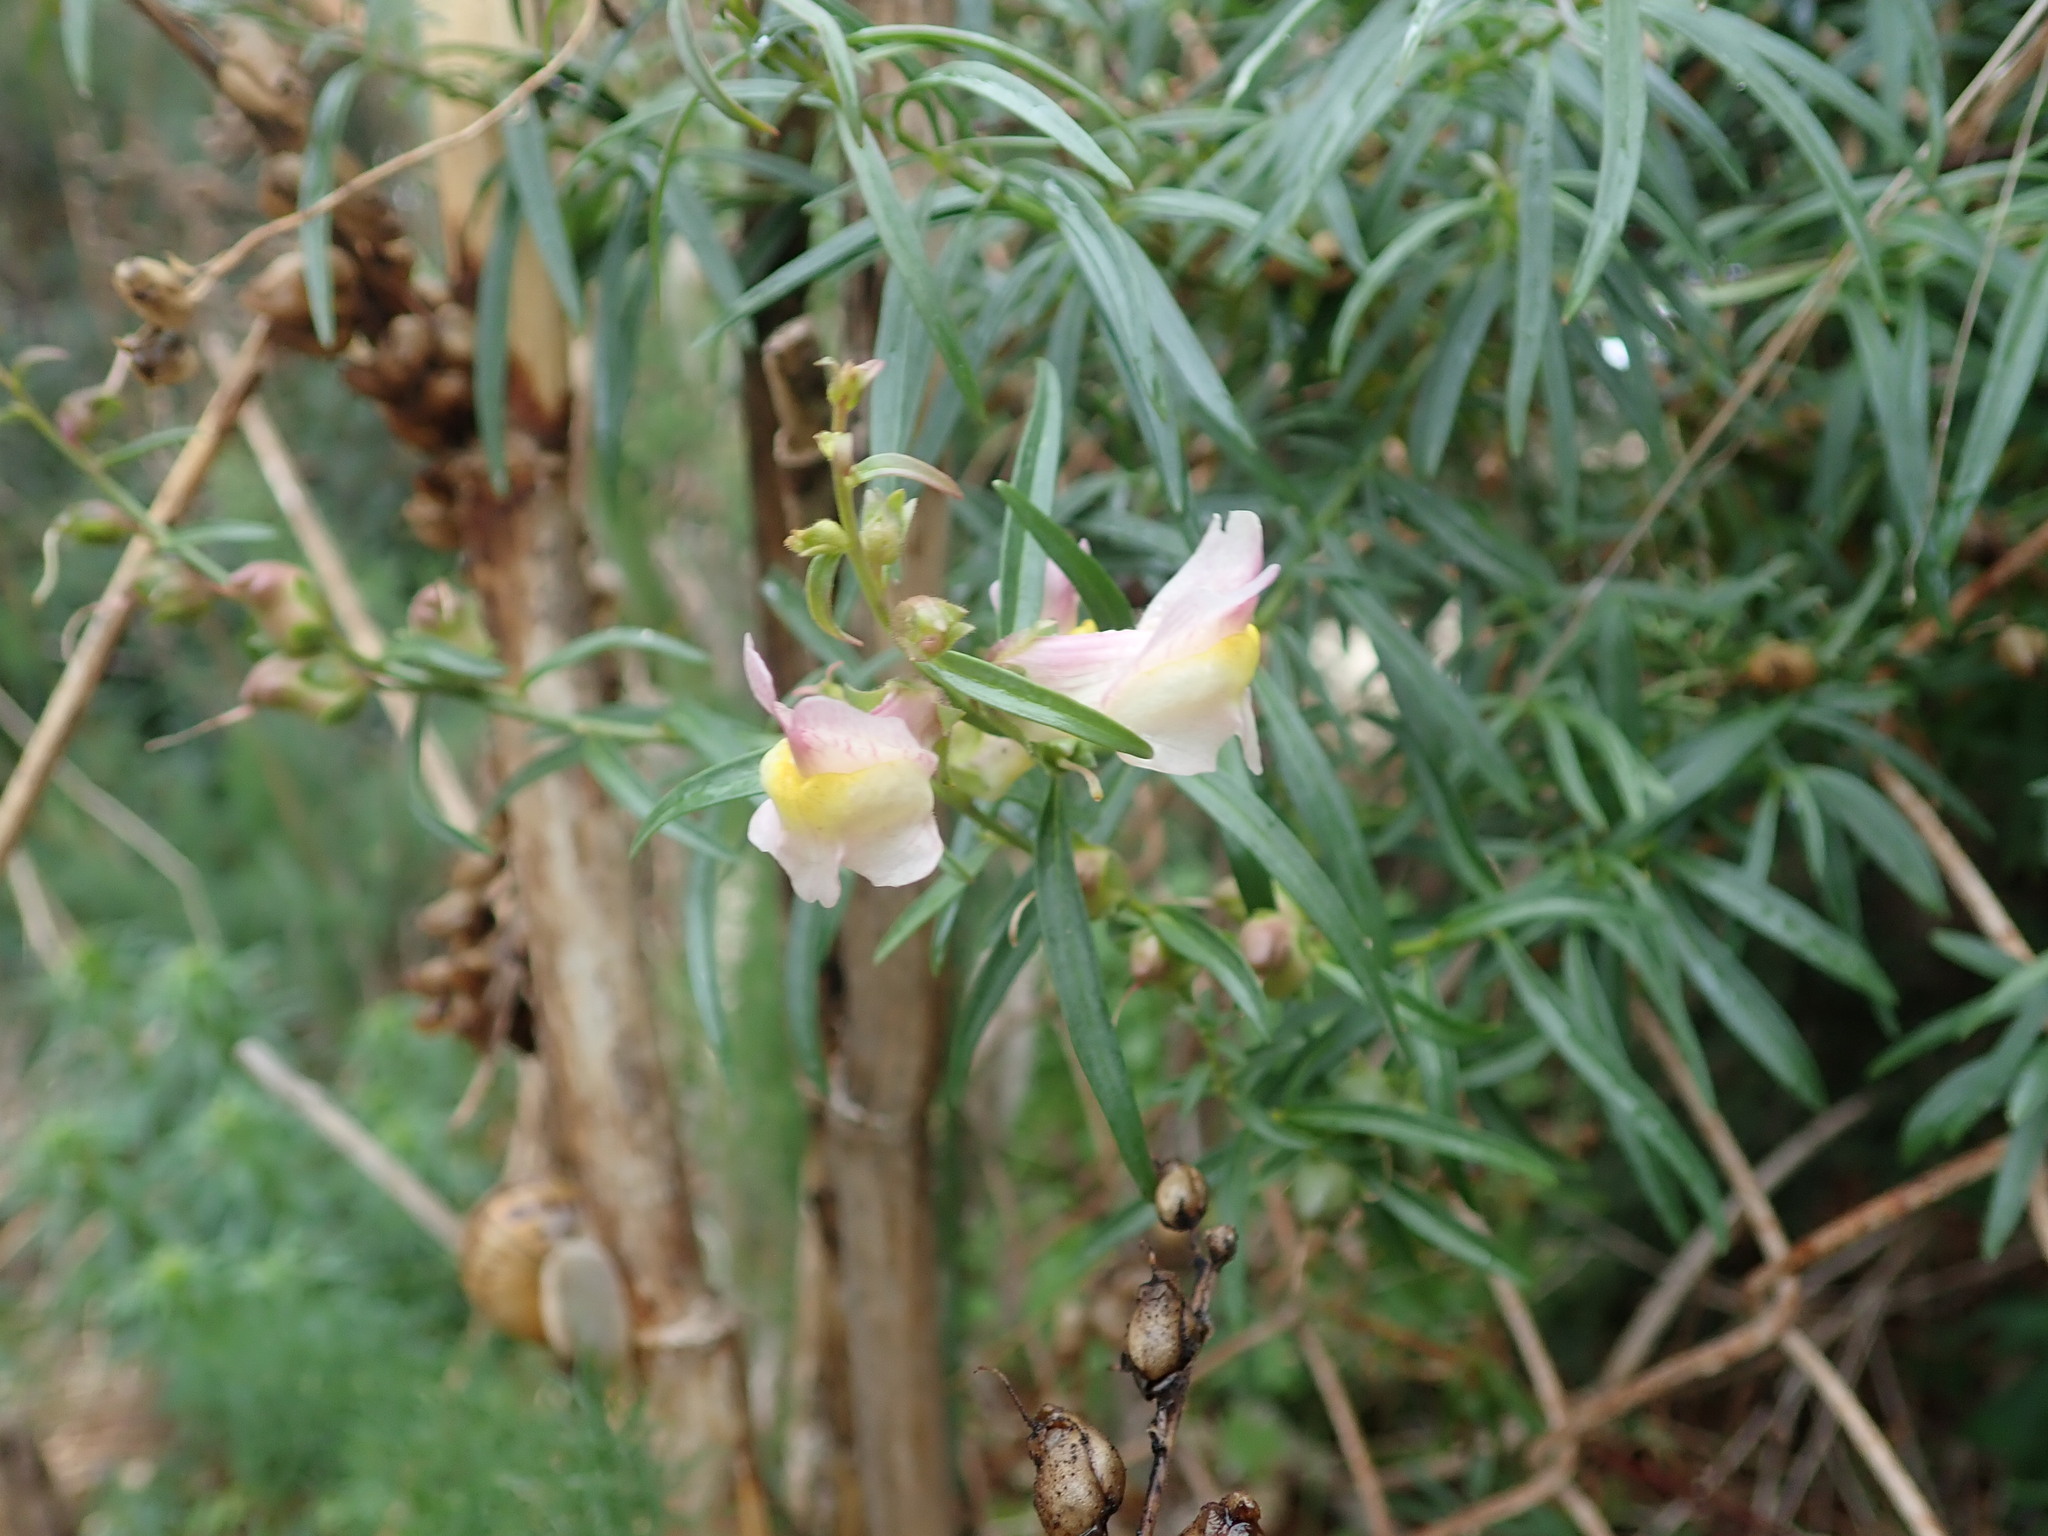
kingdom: Plantae
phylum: Tracheophyta
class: Magnoliopsida
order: Lamiales
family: Plantaginaceae
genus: Antirrhinum
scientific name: Antirrhinum siculum
